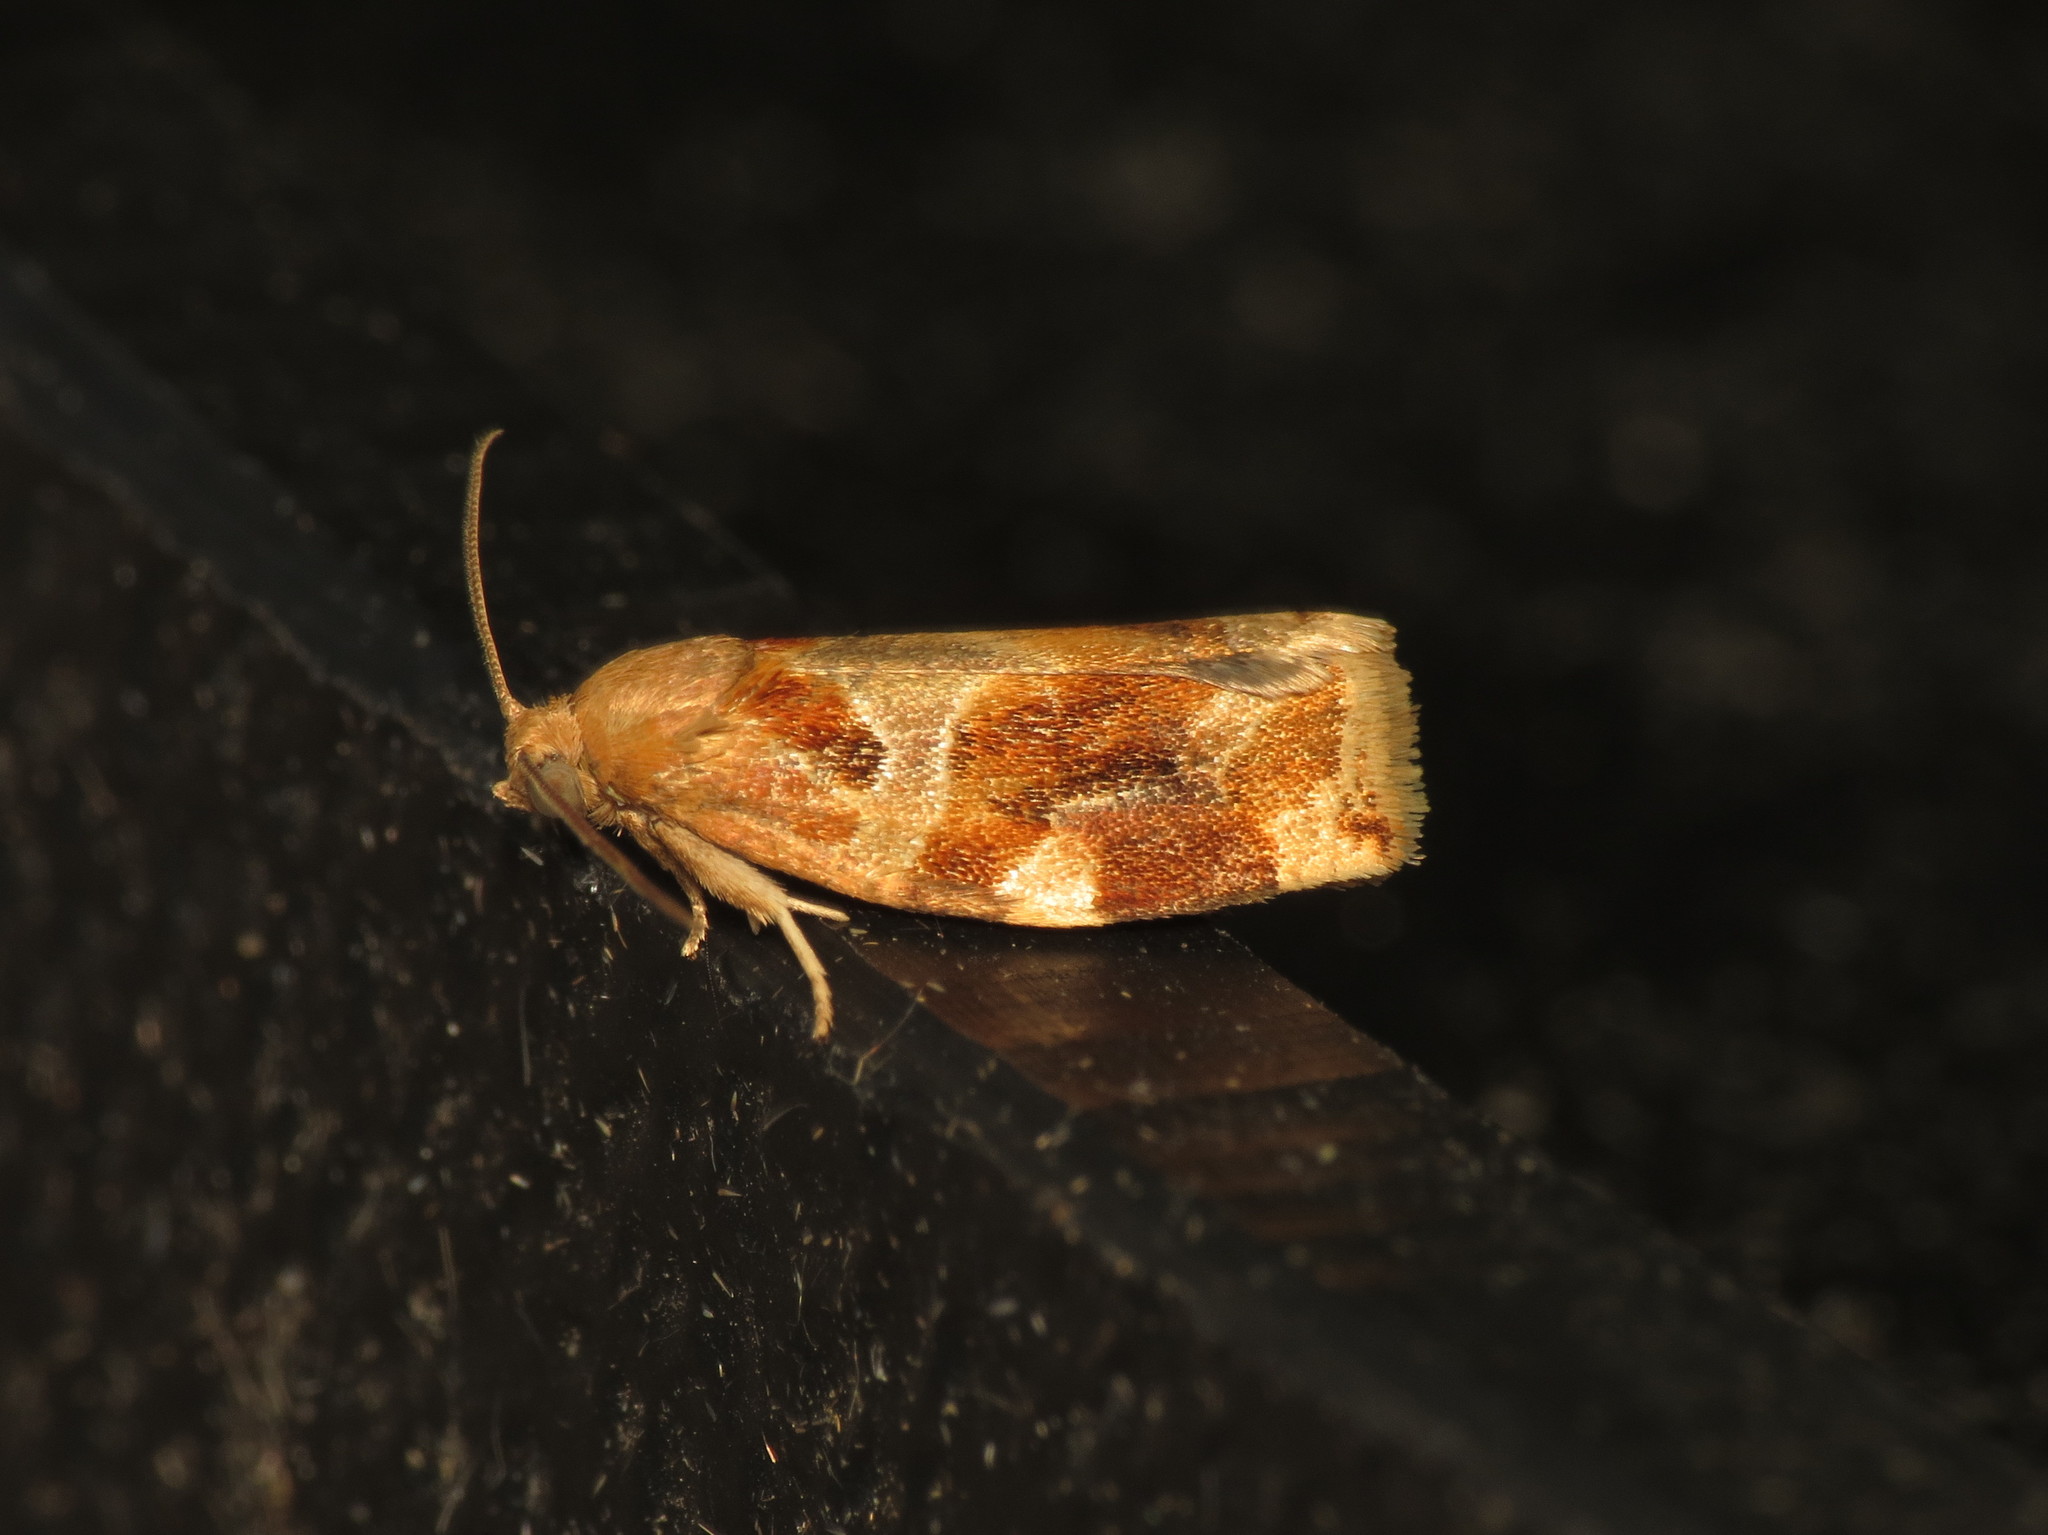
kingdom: Animalia
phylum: Arthropoda
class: Insecta
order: Lepidoptera
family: Tortricidae
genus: Archips
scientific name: Archips xylosteana
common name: Variegated golden tortrix
